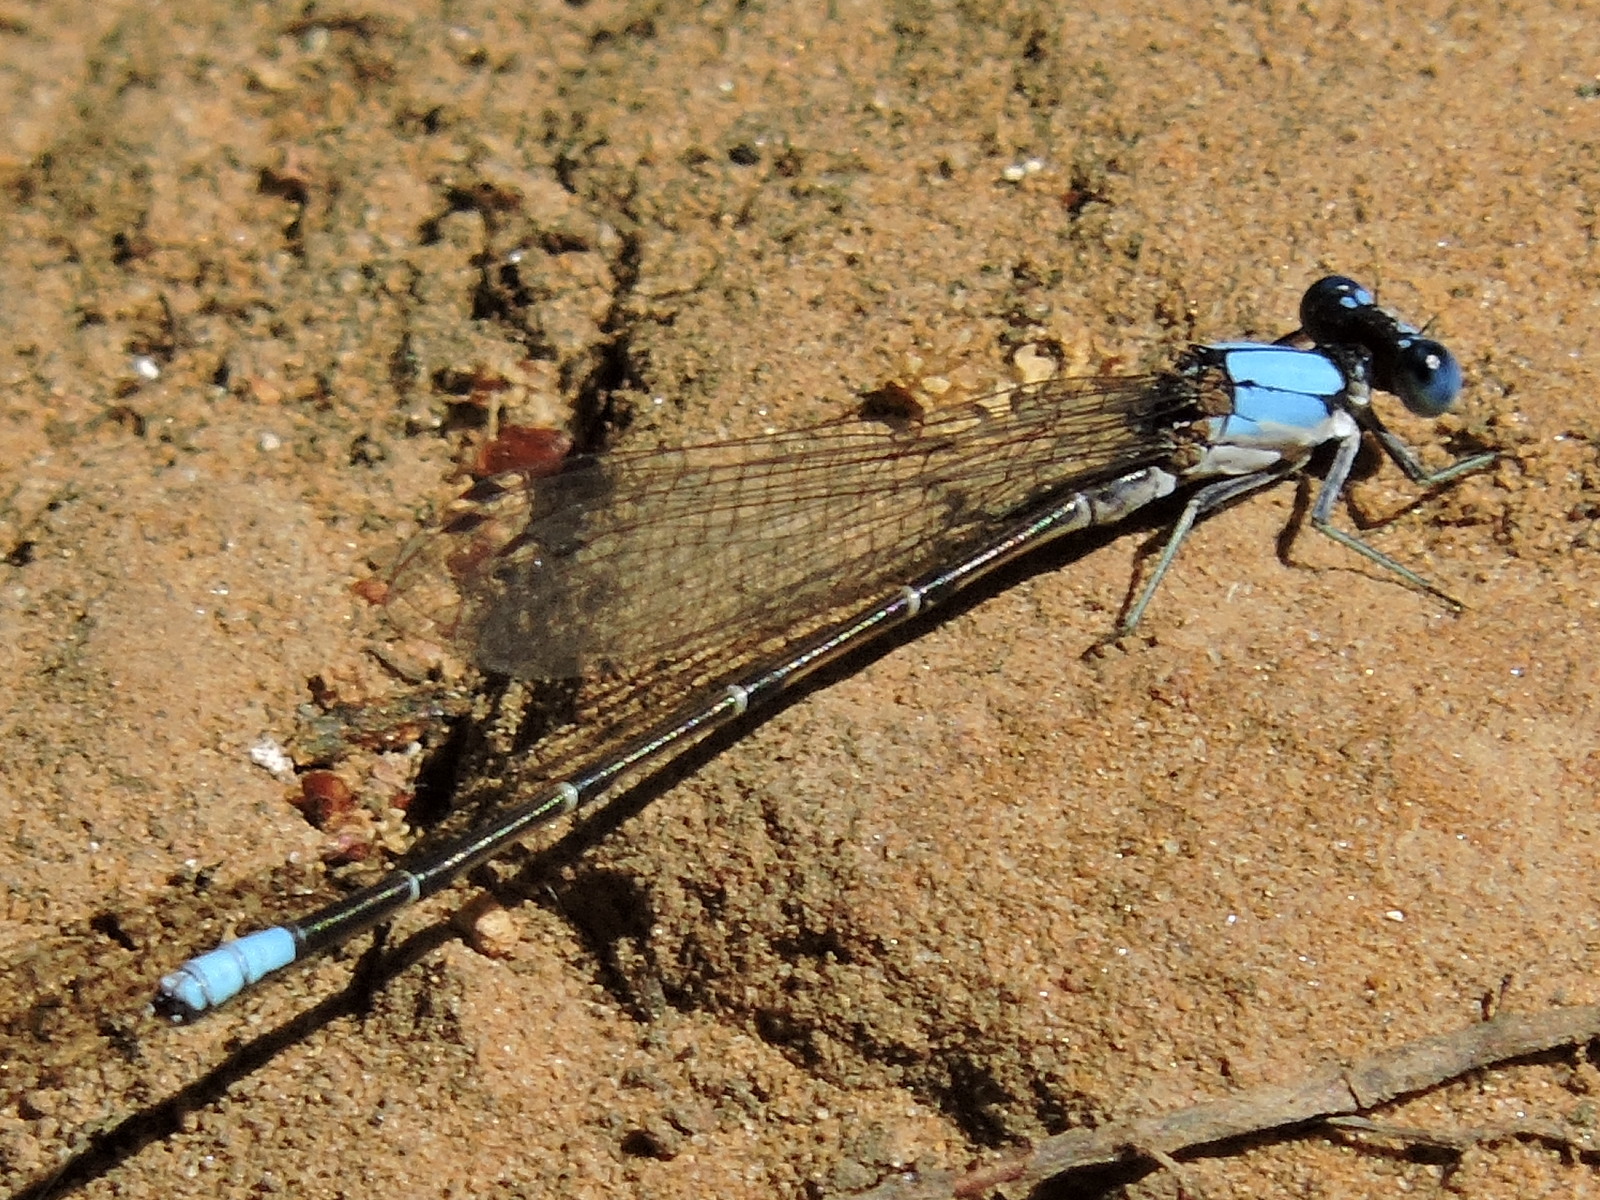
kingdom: Animalia
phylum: Arthropoda
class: Insecta
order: Odonata
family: Coenagrionidae
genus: Argia
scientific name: Argia apicalis
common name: Blue-fronted dancer
